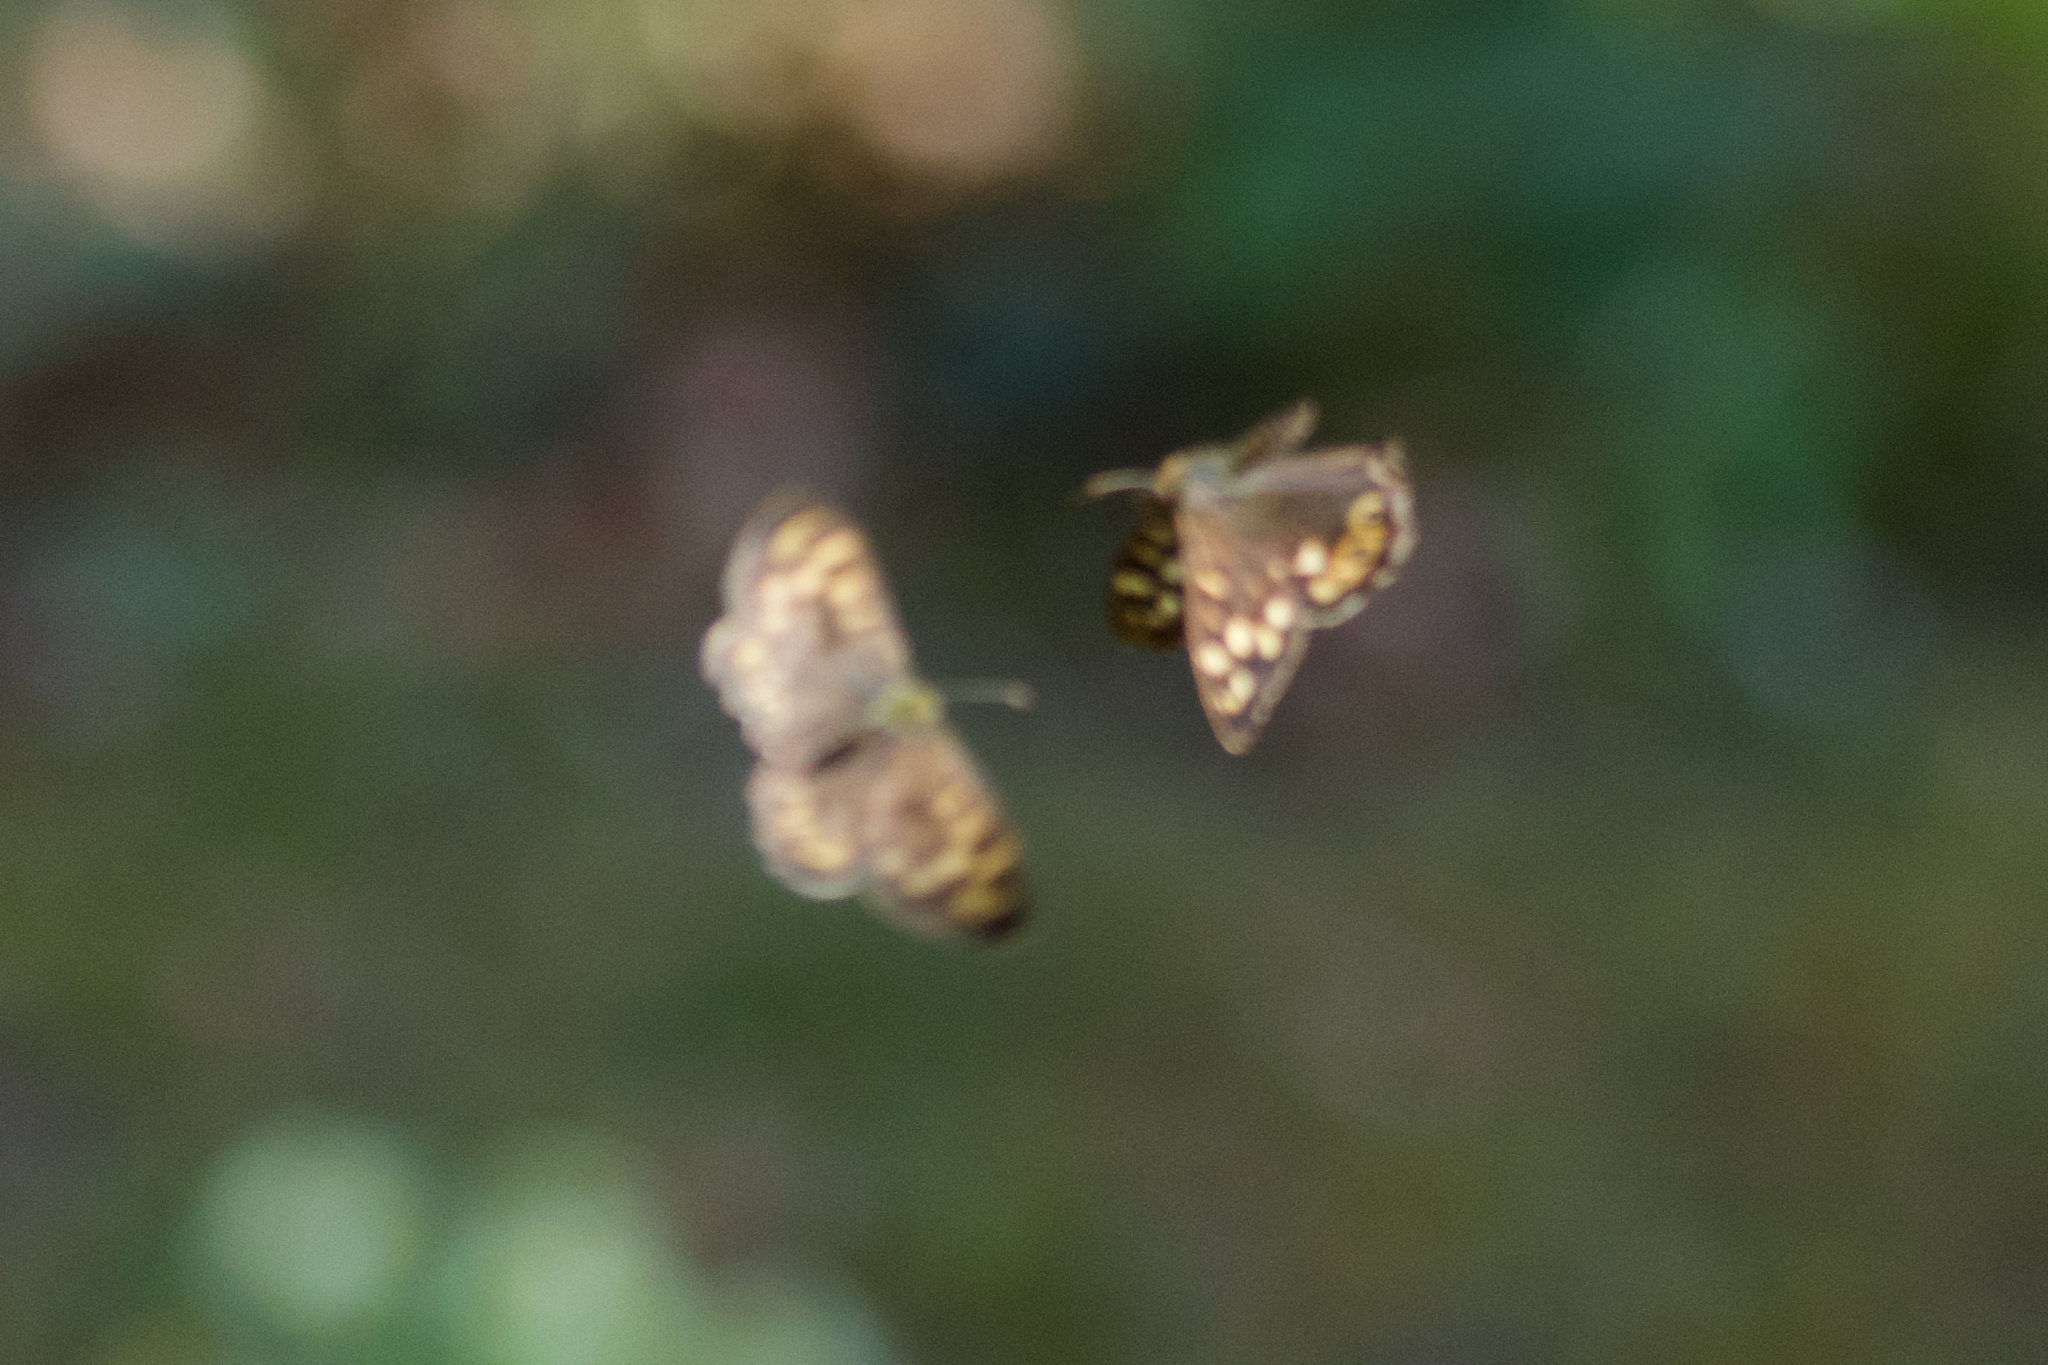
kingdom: Animalia
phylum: Arthropoda
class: Insecta
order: Lepidoptera
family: Nymphalidae
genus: Pararge
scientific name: Pararge aegeria
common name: Speckled wood
